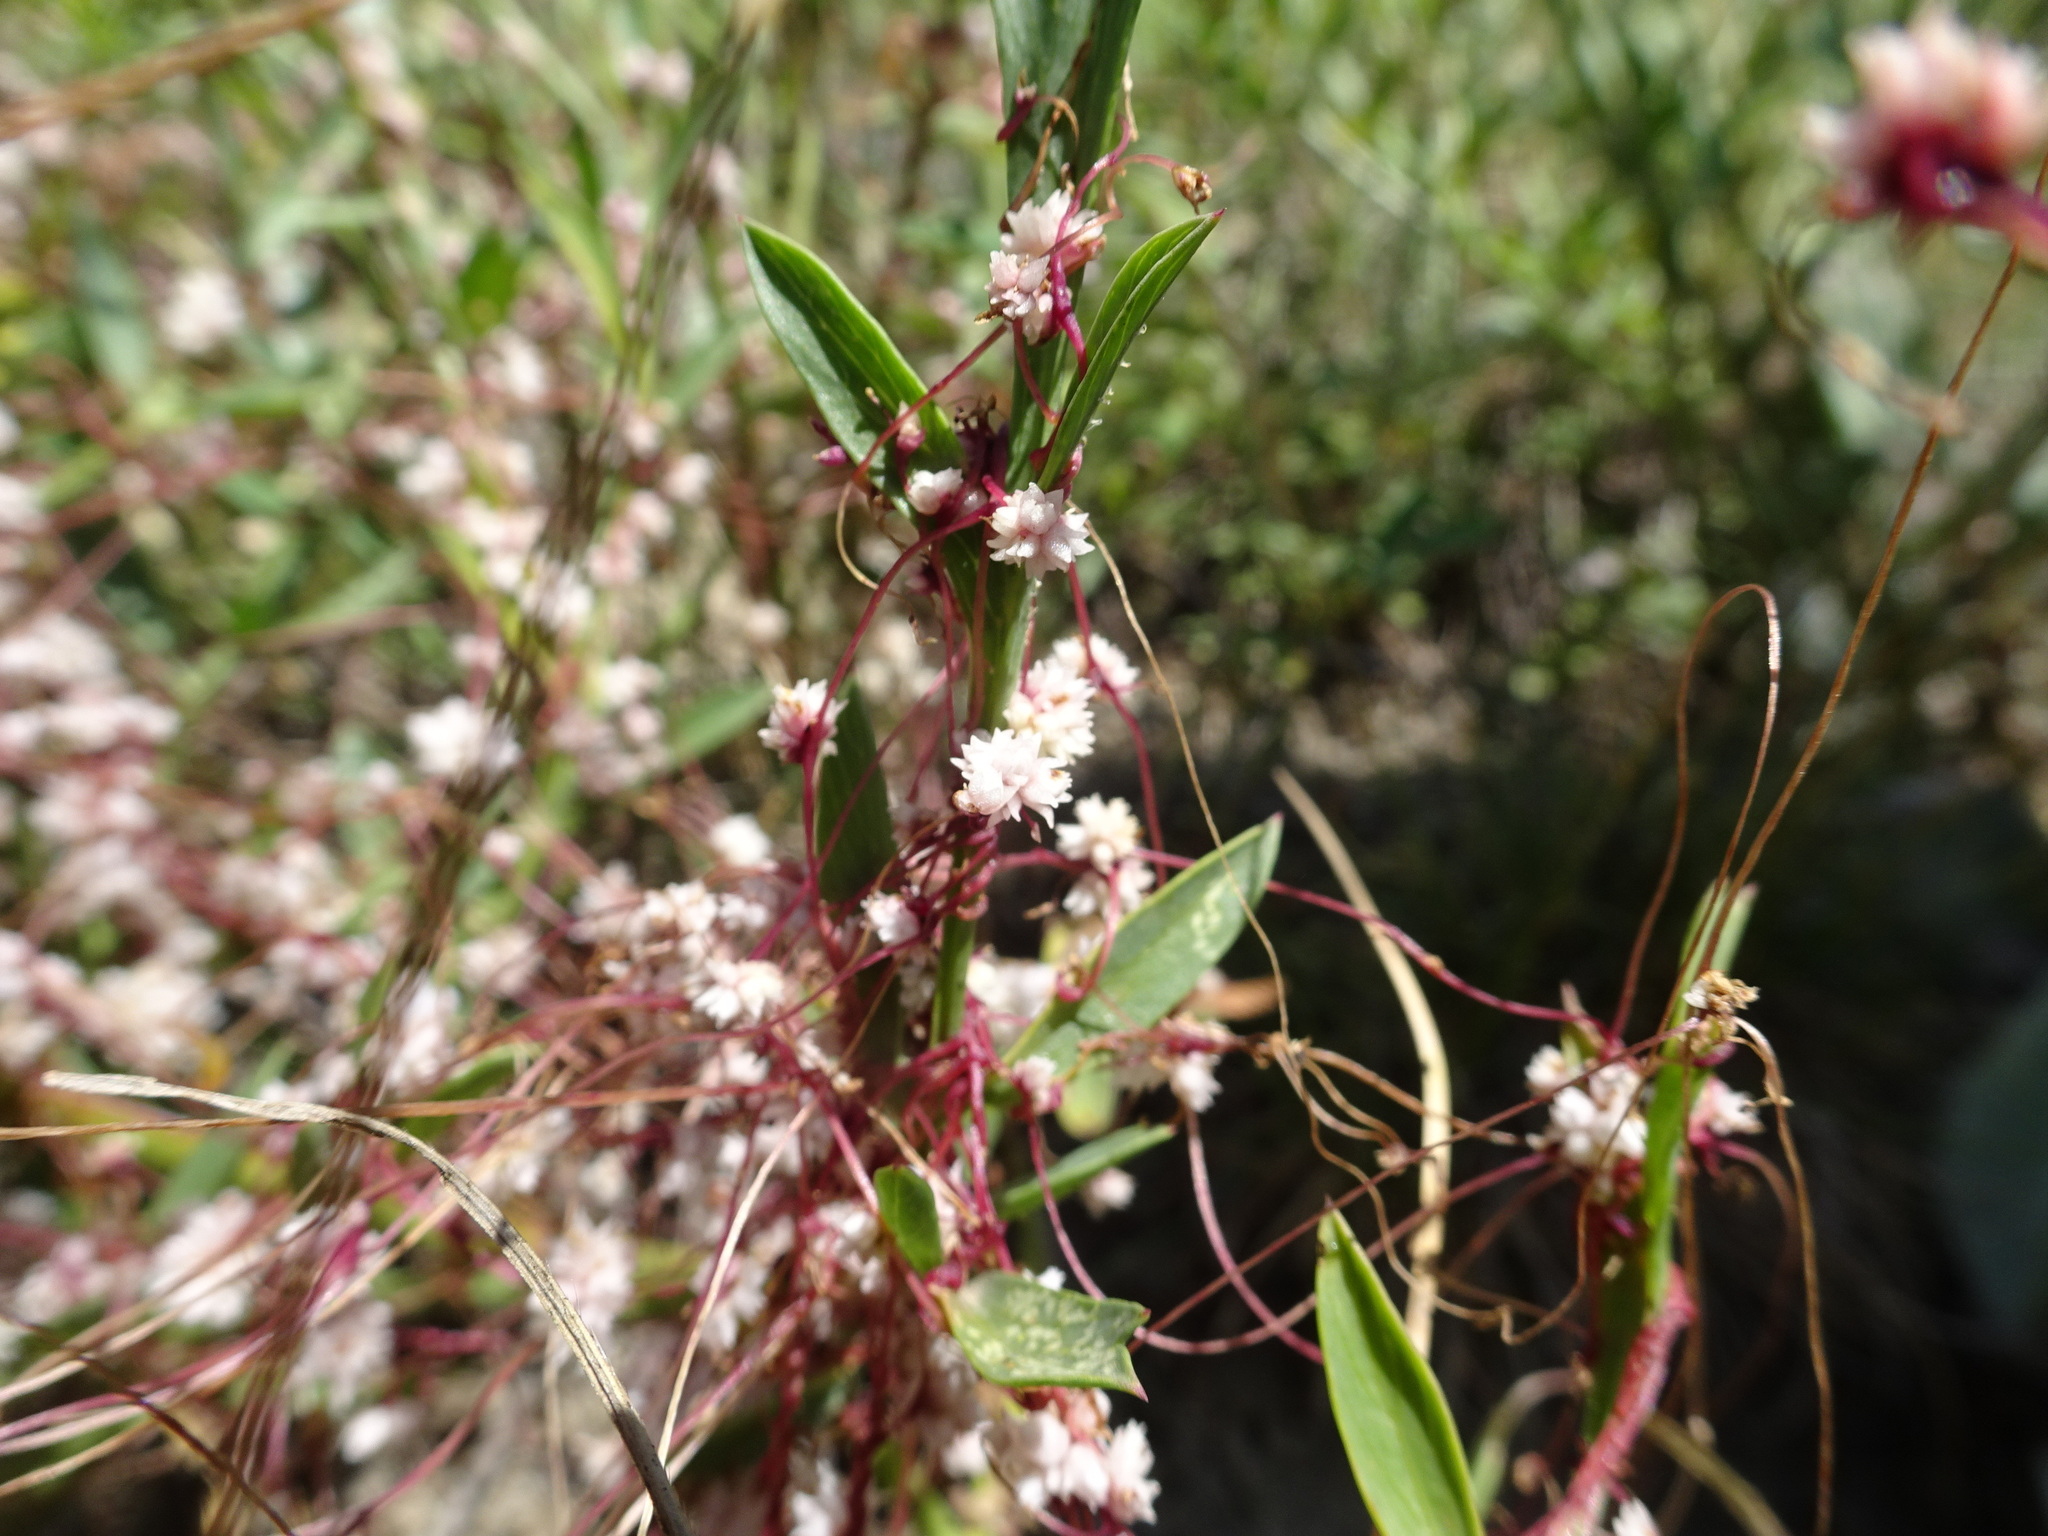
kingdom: Plantae
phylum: Tracheophyta
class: Magnoliopsida
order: Solanales
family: Convolvulaceae
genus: Cuscuta
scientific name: Cuscuta epithymum
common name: Clover dodder
